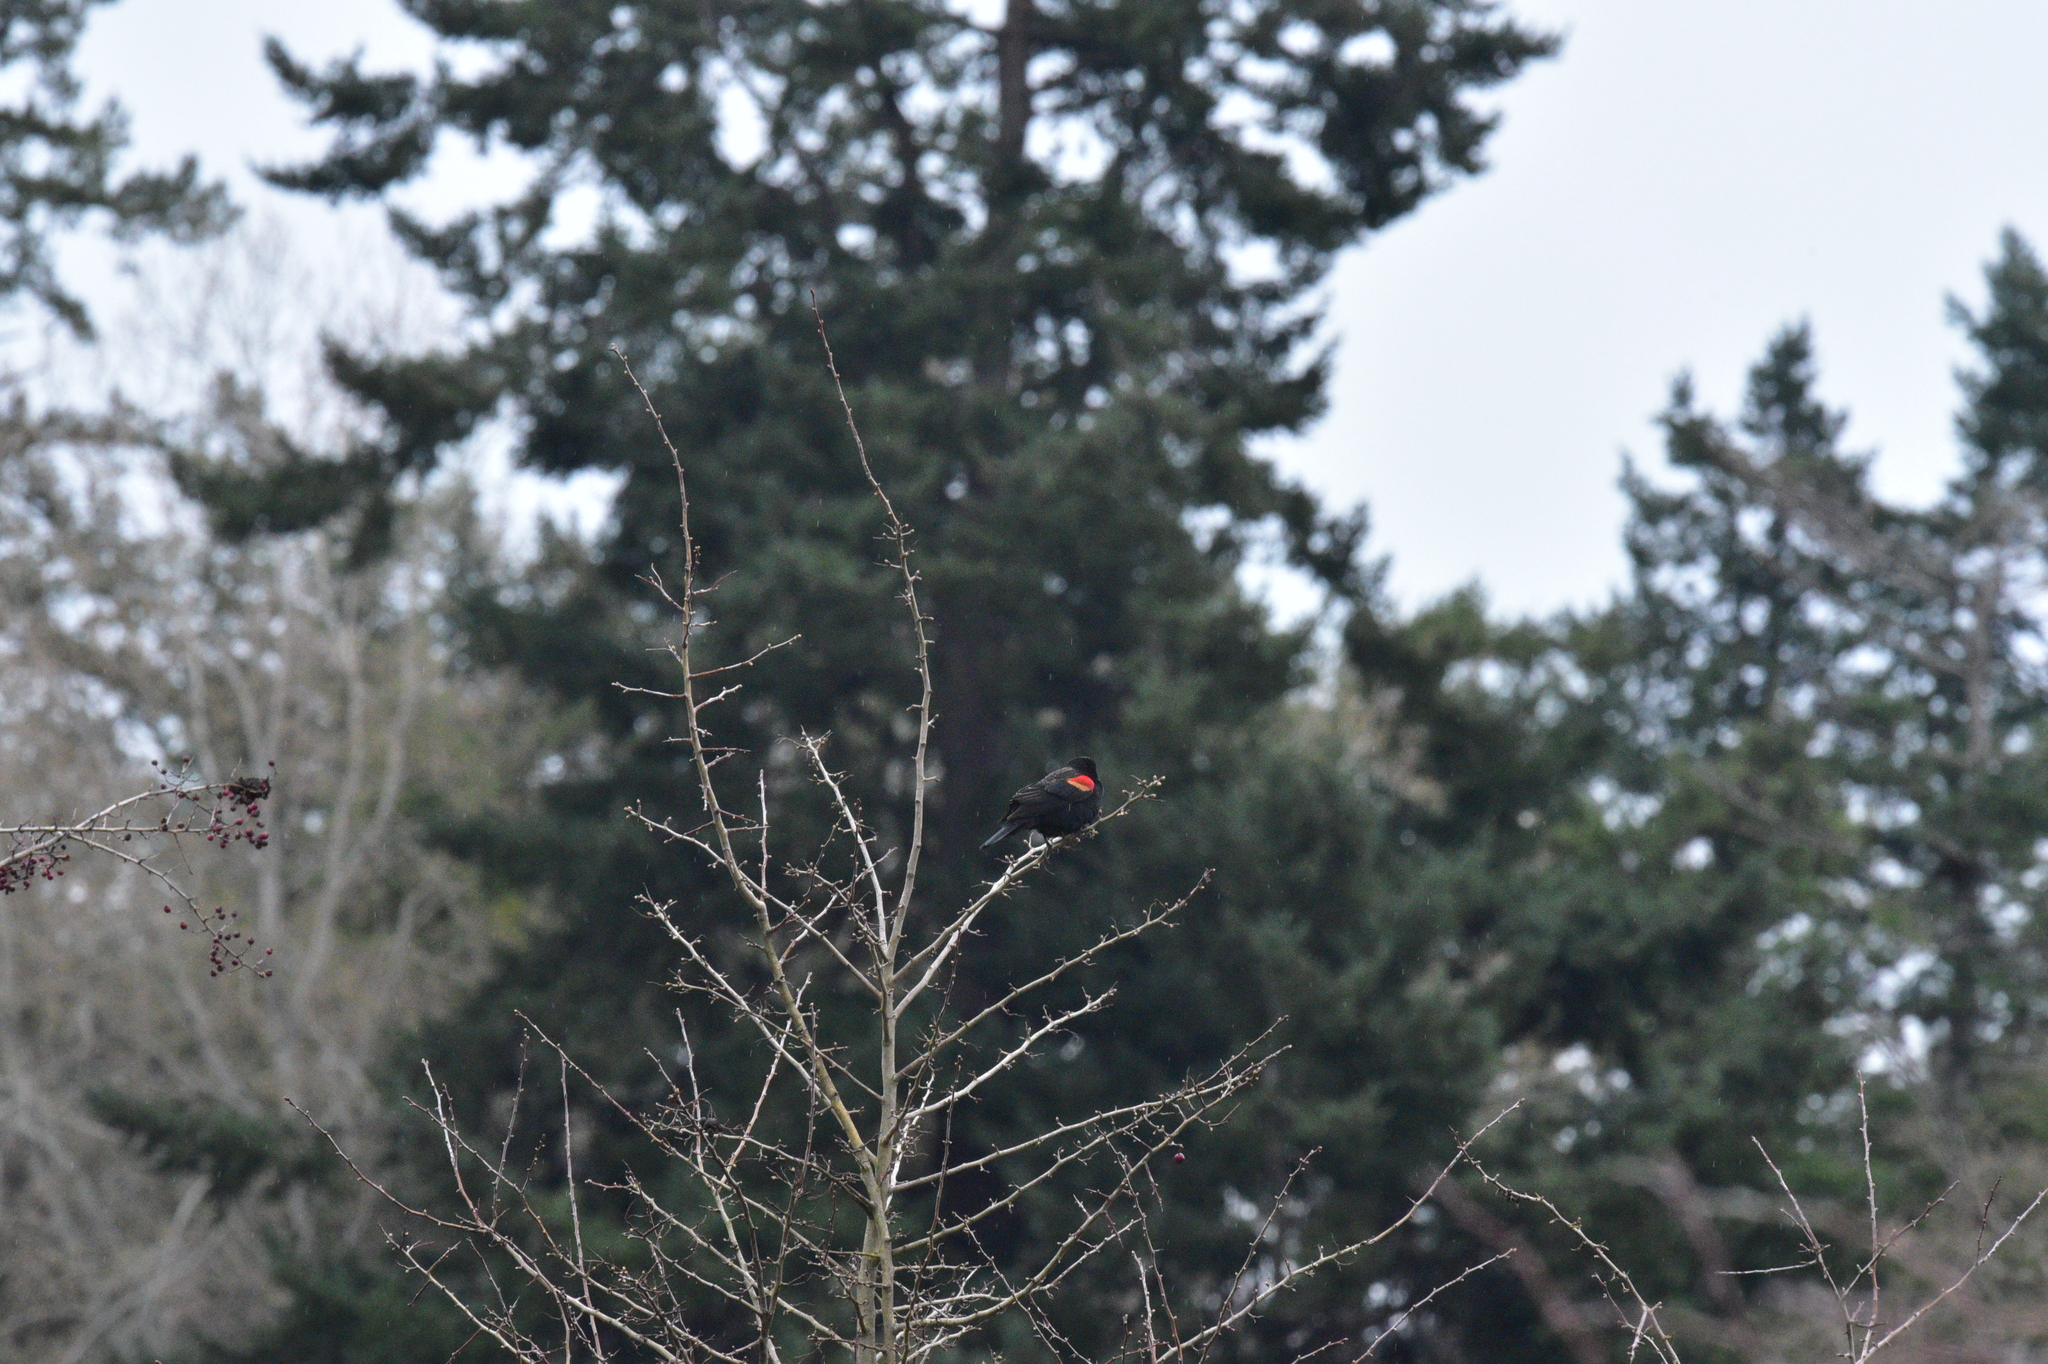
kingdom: Animalia
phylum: Chordata
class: Aves
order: Passeriformes
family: Icteridae
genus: Agelaius
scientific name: Agelaius phoeniceus
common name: Red-winged blackbird
